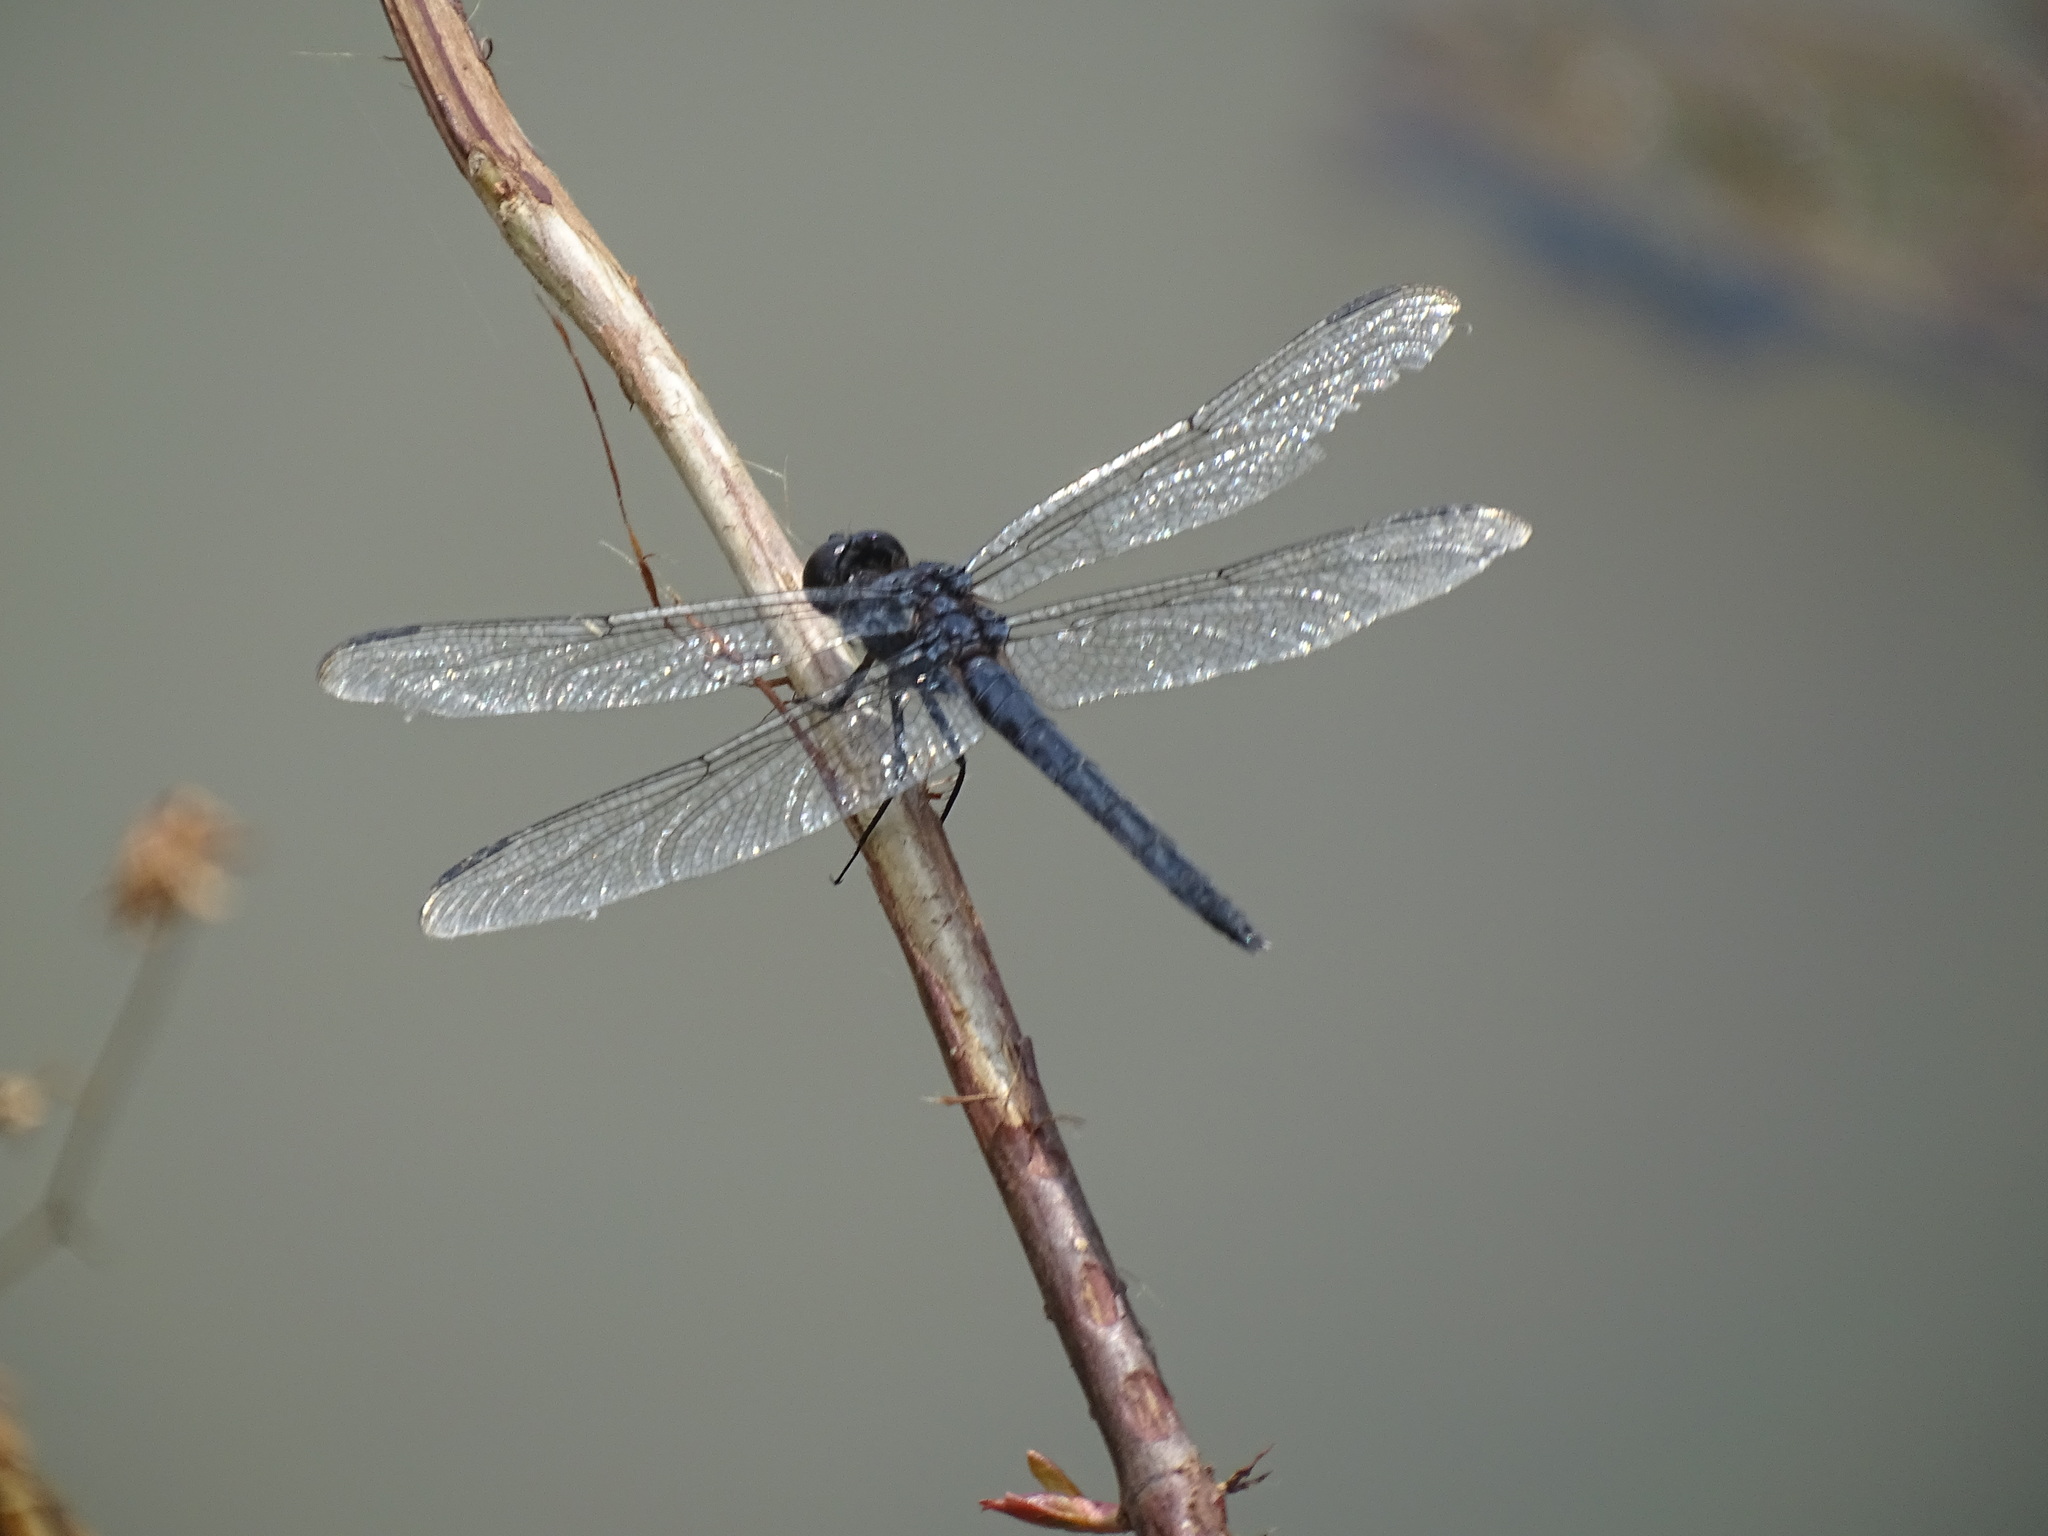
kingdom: Animalia
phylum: Arthropoda
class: Insecta
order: Odonata
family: Libellulidae
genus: Libellula
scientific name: Libellula incesta
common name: Slaty skimmer
